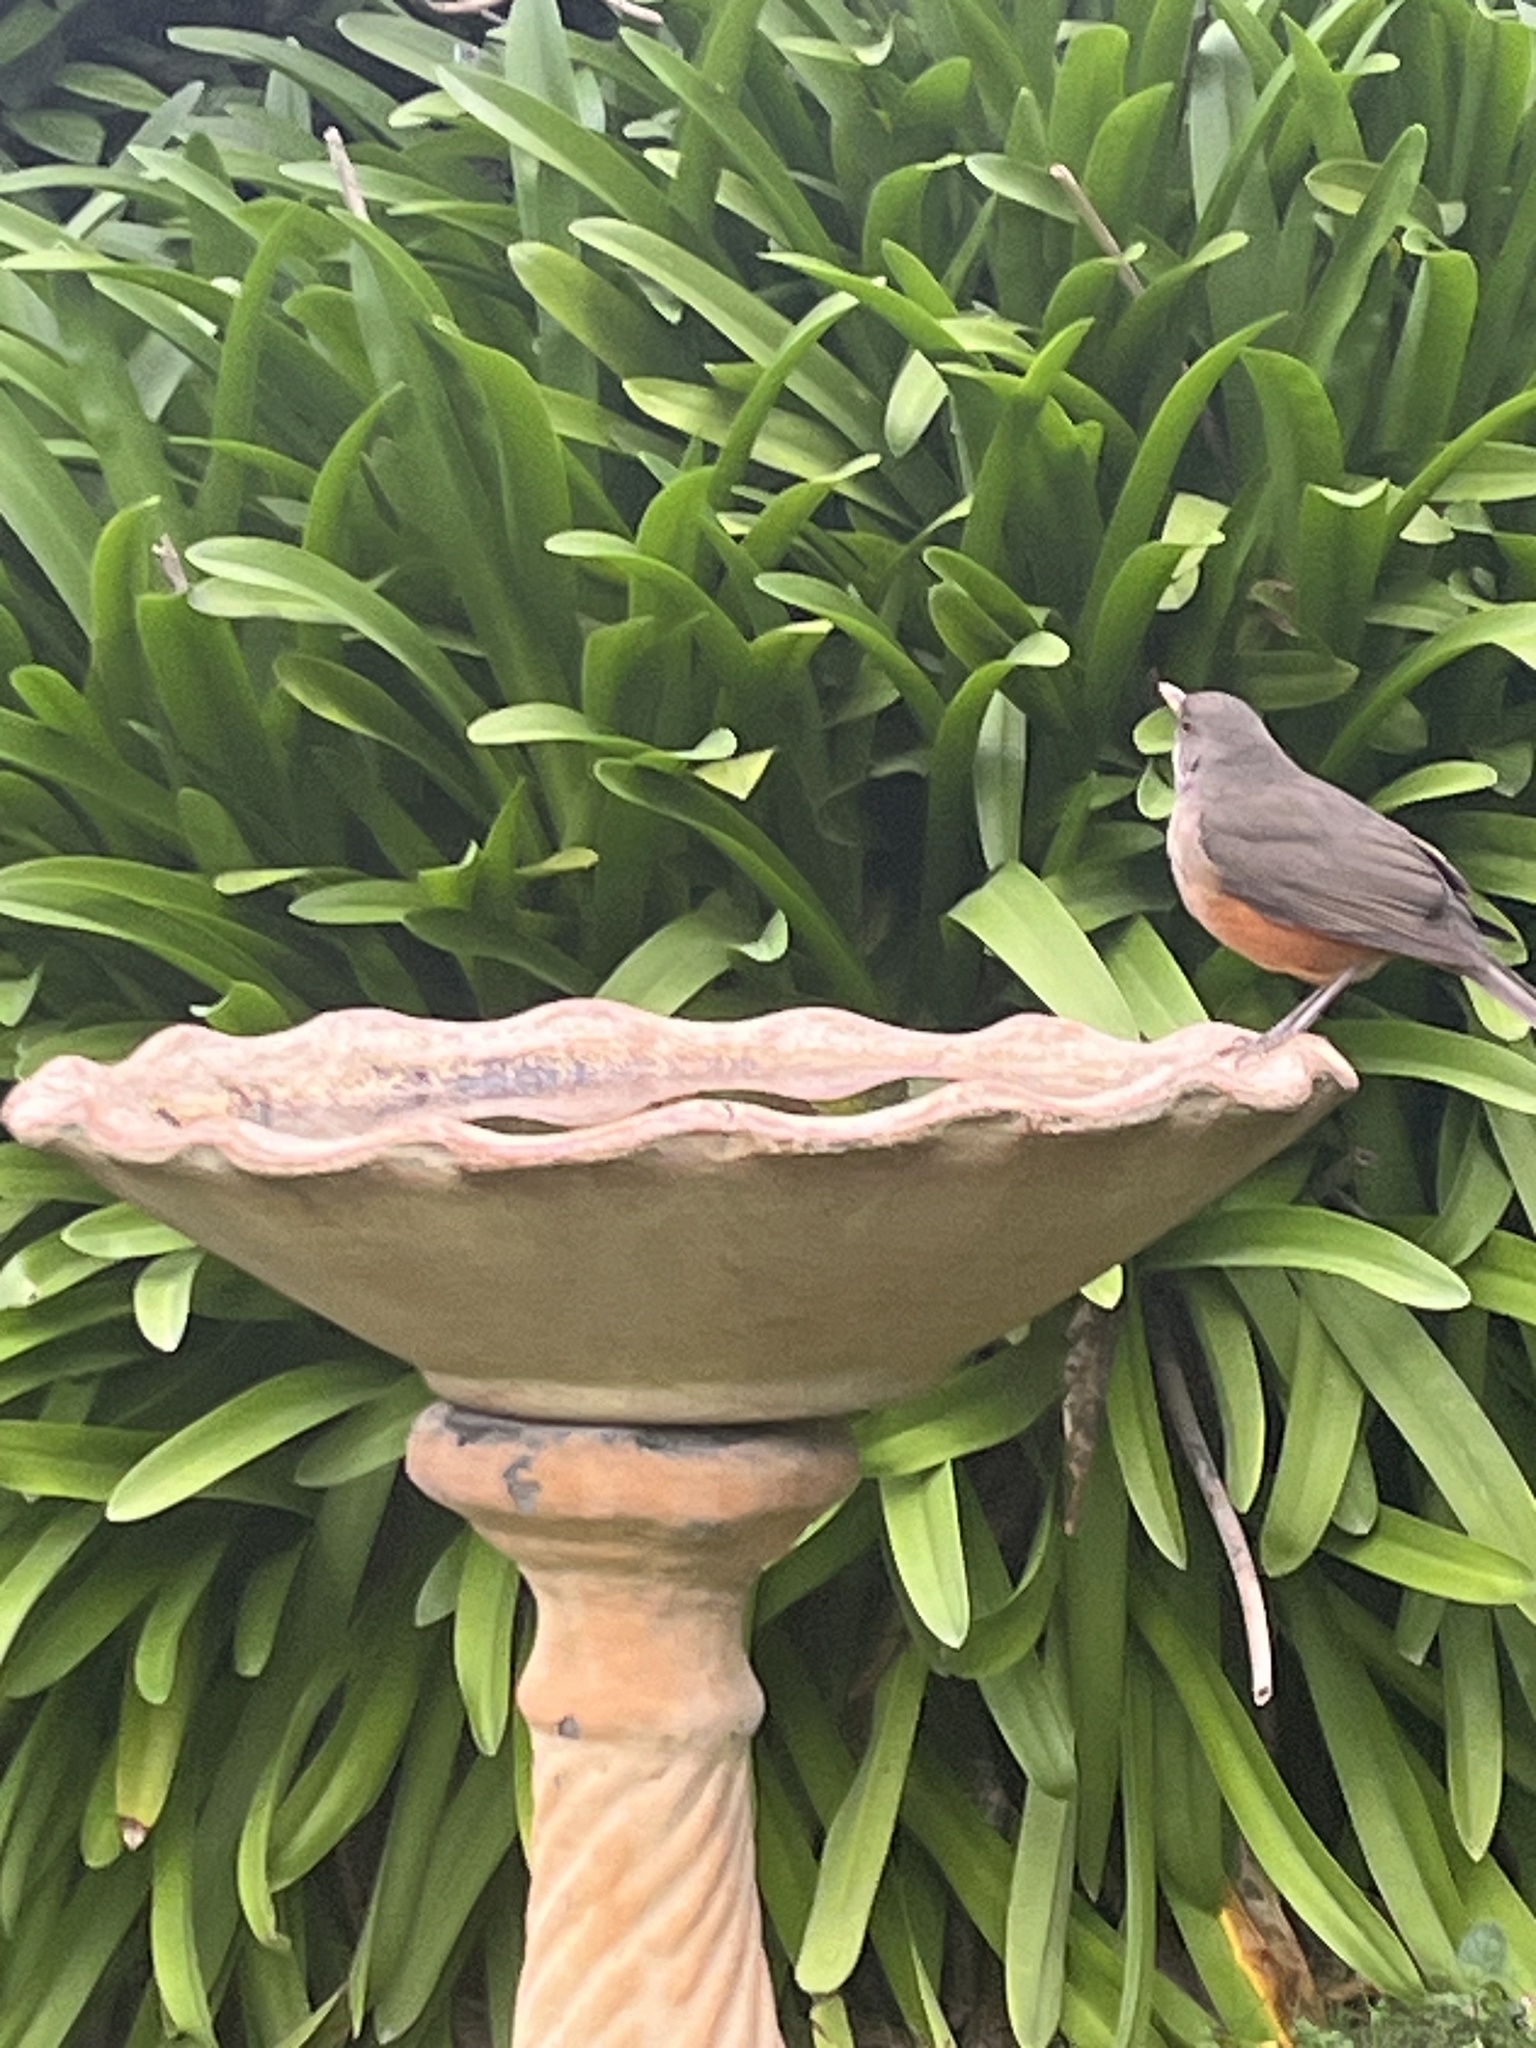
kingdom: Animalia
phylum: Chordata
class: Aves
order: Passeriformes
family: Turdidae
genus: Turdus
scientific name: Turdus rufiventris
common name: Rufous-bellied thrush
